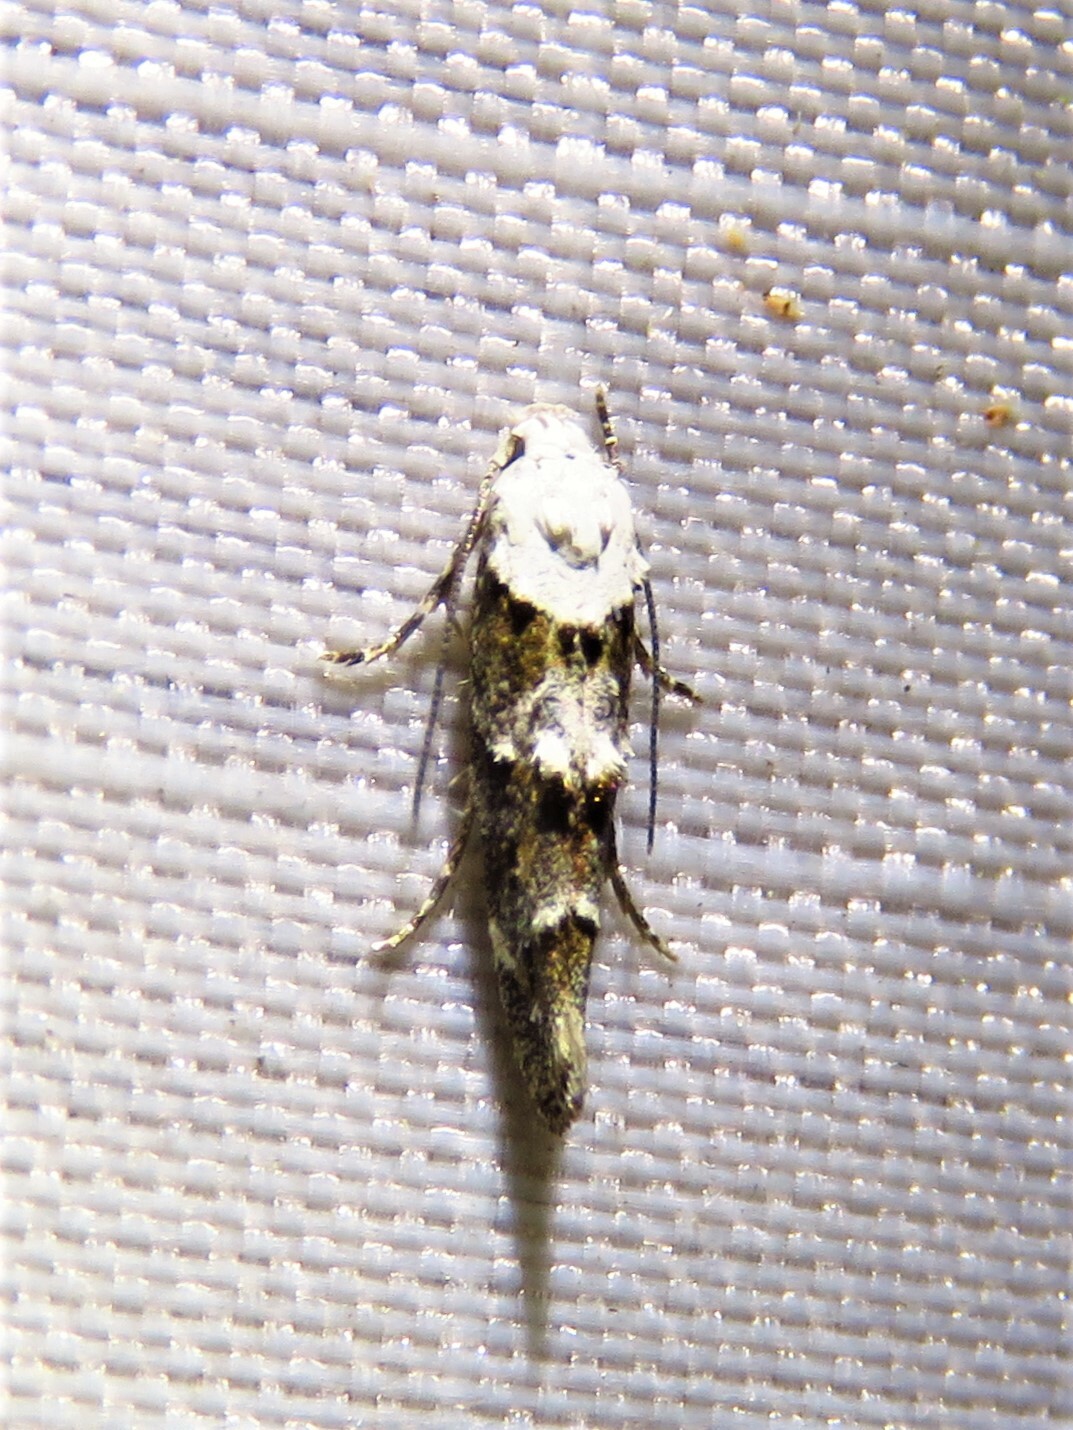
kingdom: Animalia
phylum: Arthropoda
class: Insecta
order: Lepidoptera
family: Momphidae
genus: Mompha
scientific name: Mompha albocapitella
